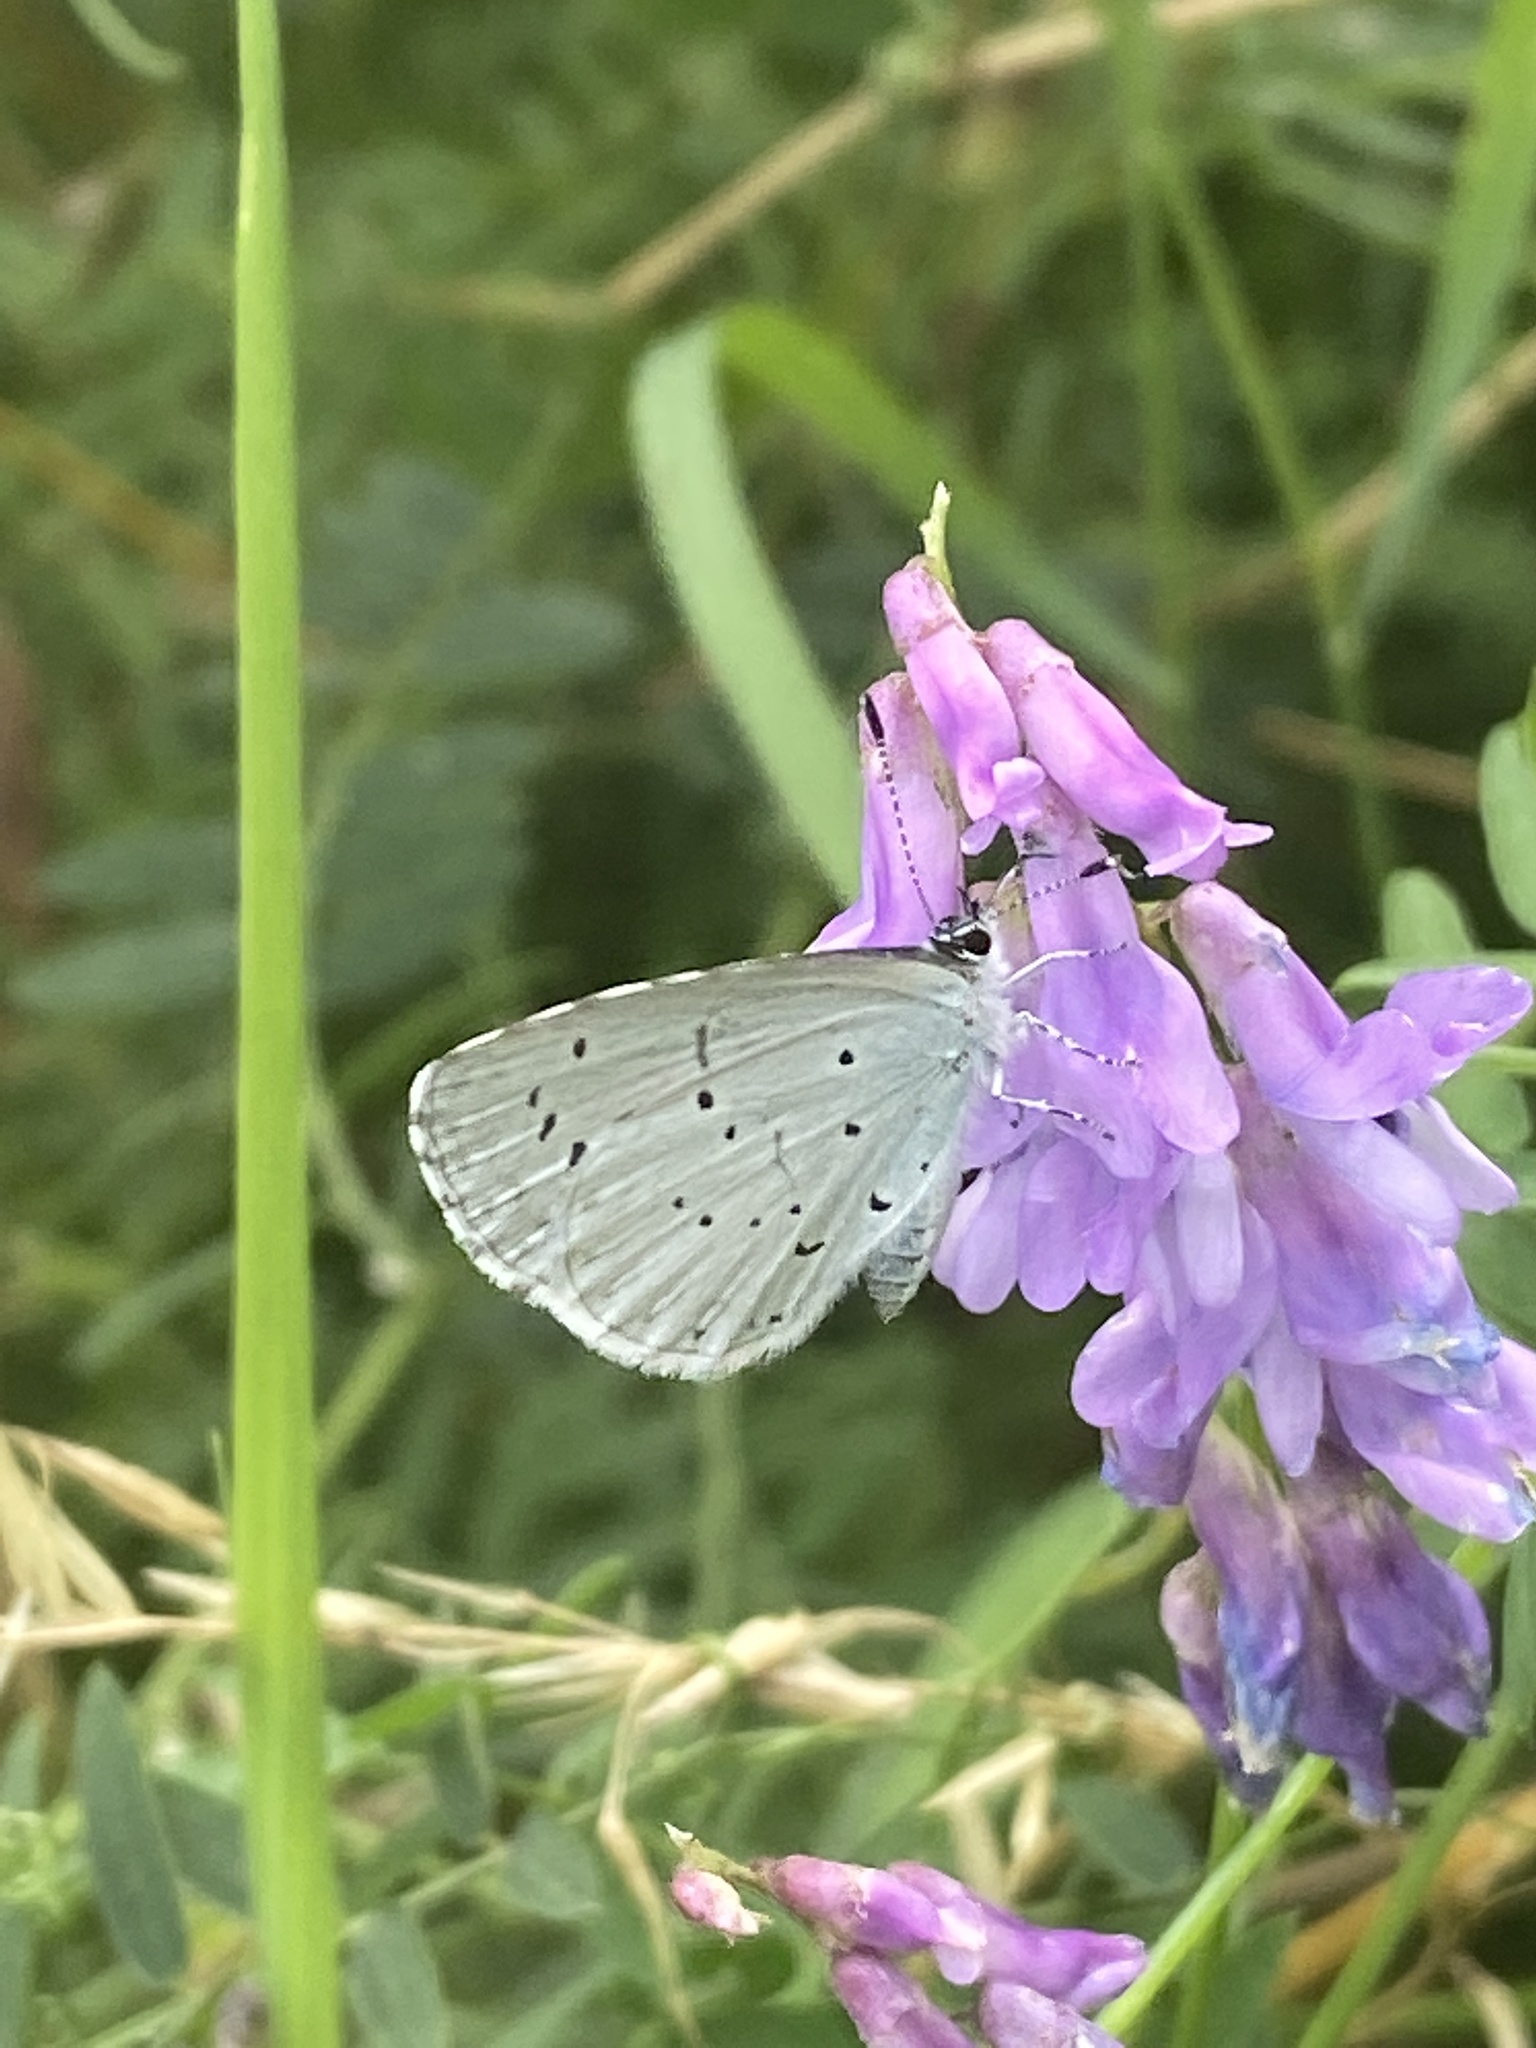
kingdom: Animalia
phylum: Arthropoda
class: Insecta
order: Lepidoptera
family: Lycaenidae
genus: Celastrina
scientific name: Celastrina argiolus
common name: Holly blue
